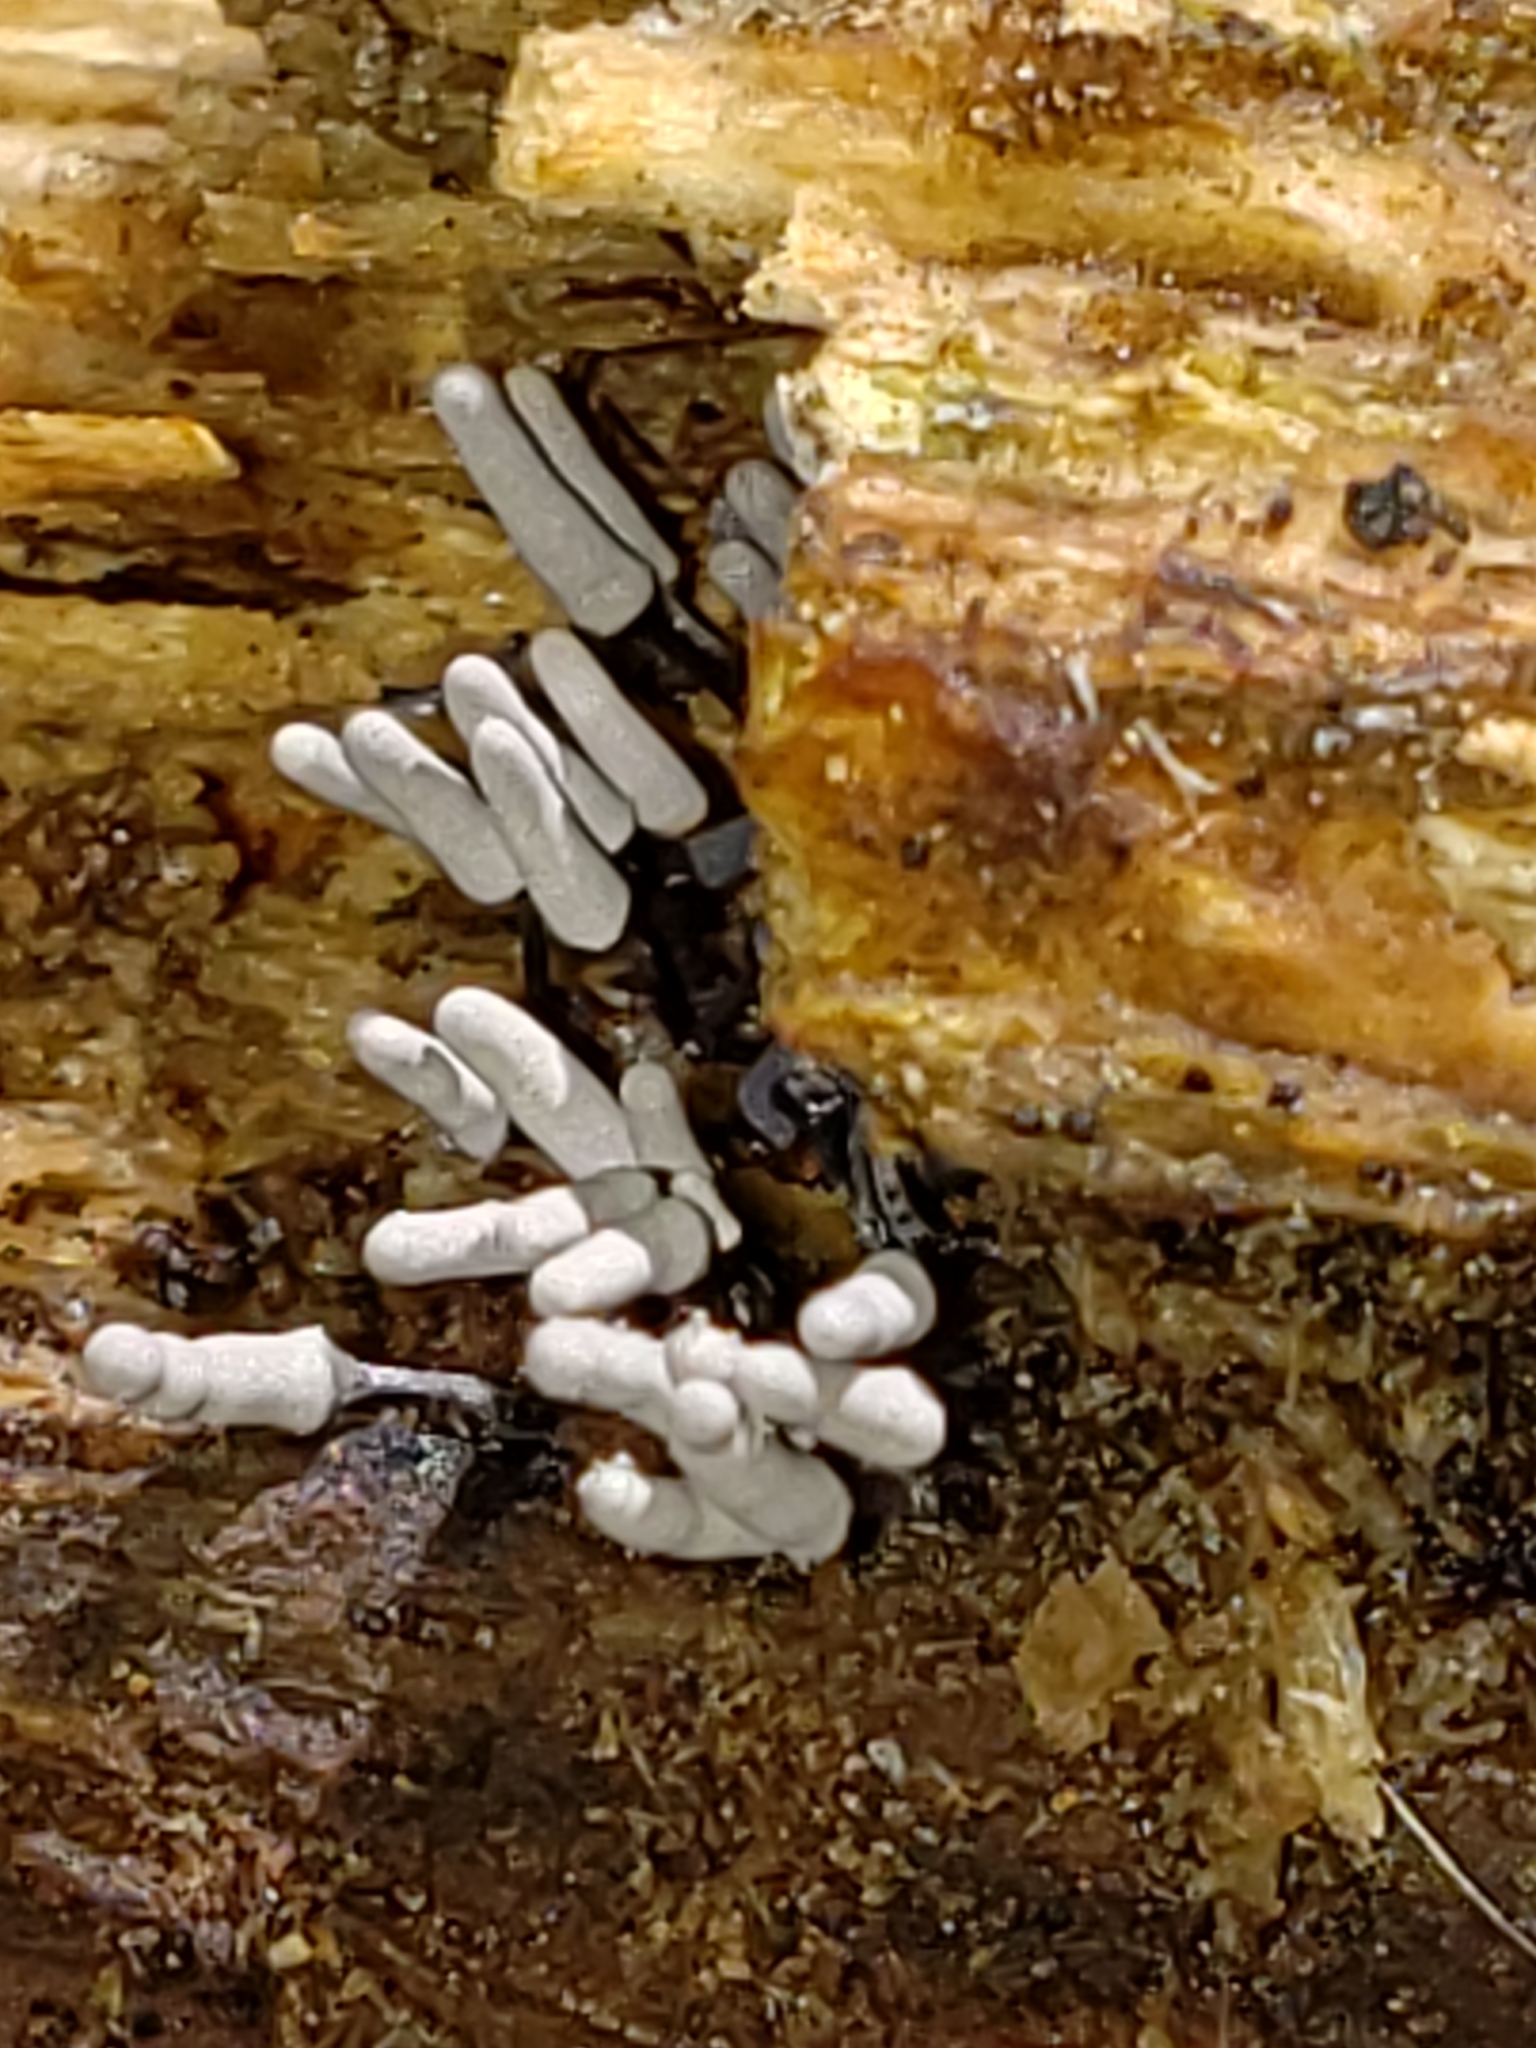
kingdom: Protozoa
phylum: Mycetozoa
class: Myxomycetes
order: Trichiales
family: Arcyriaceae
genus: Arcyria
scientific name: Arcyria cinerea
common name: White carnival candy slime mold
